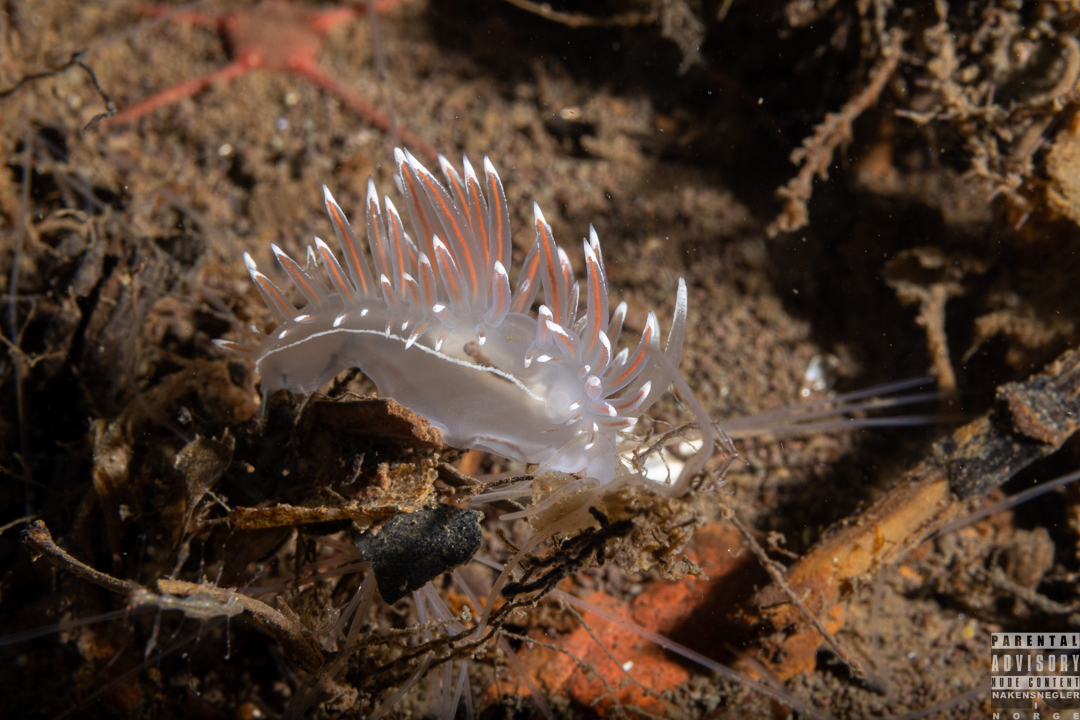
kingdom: Animalia
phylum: Mollusca
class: Gastropoda
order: Nudibranchia
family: Coryphellidae
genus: Coryphella
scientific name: Coryphella lineata
